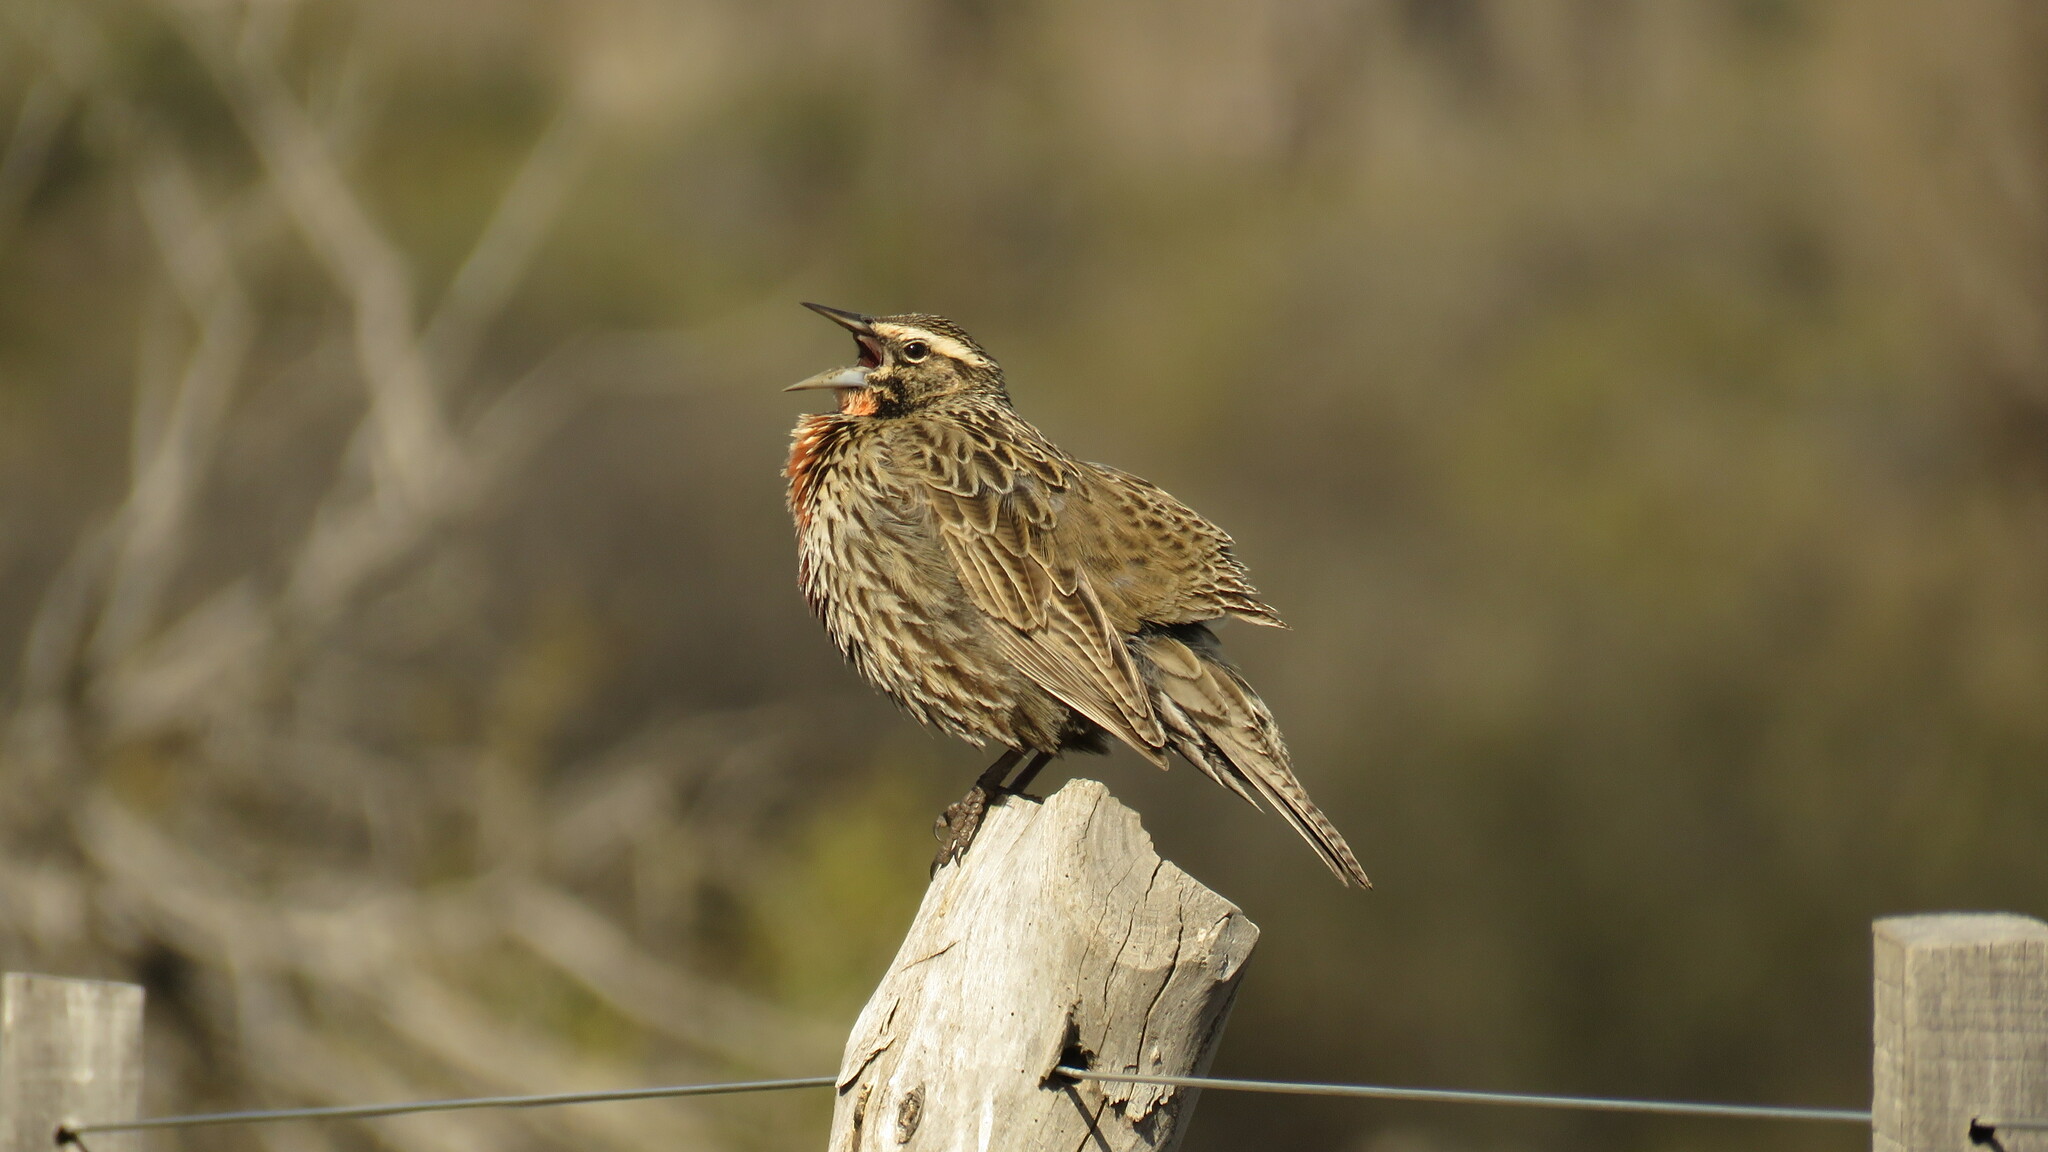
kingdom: Animalia
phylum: Chordata
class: Aves
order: Passeriformes
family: Icteridae
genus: Sturnella
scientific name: Sturnella loyca
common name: Long-tailed meadowlark
